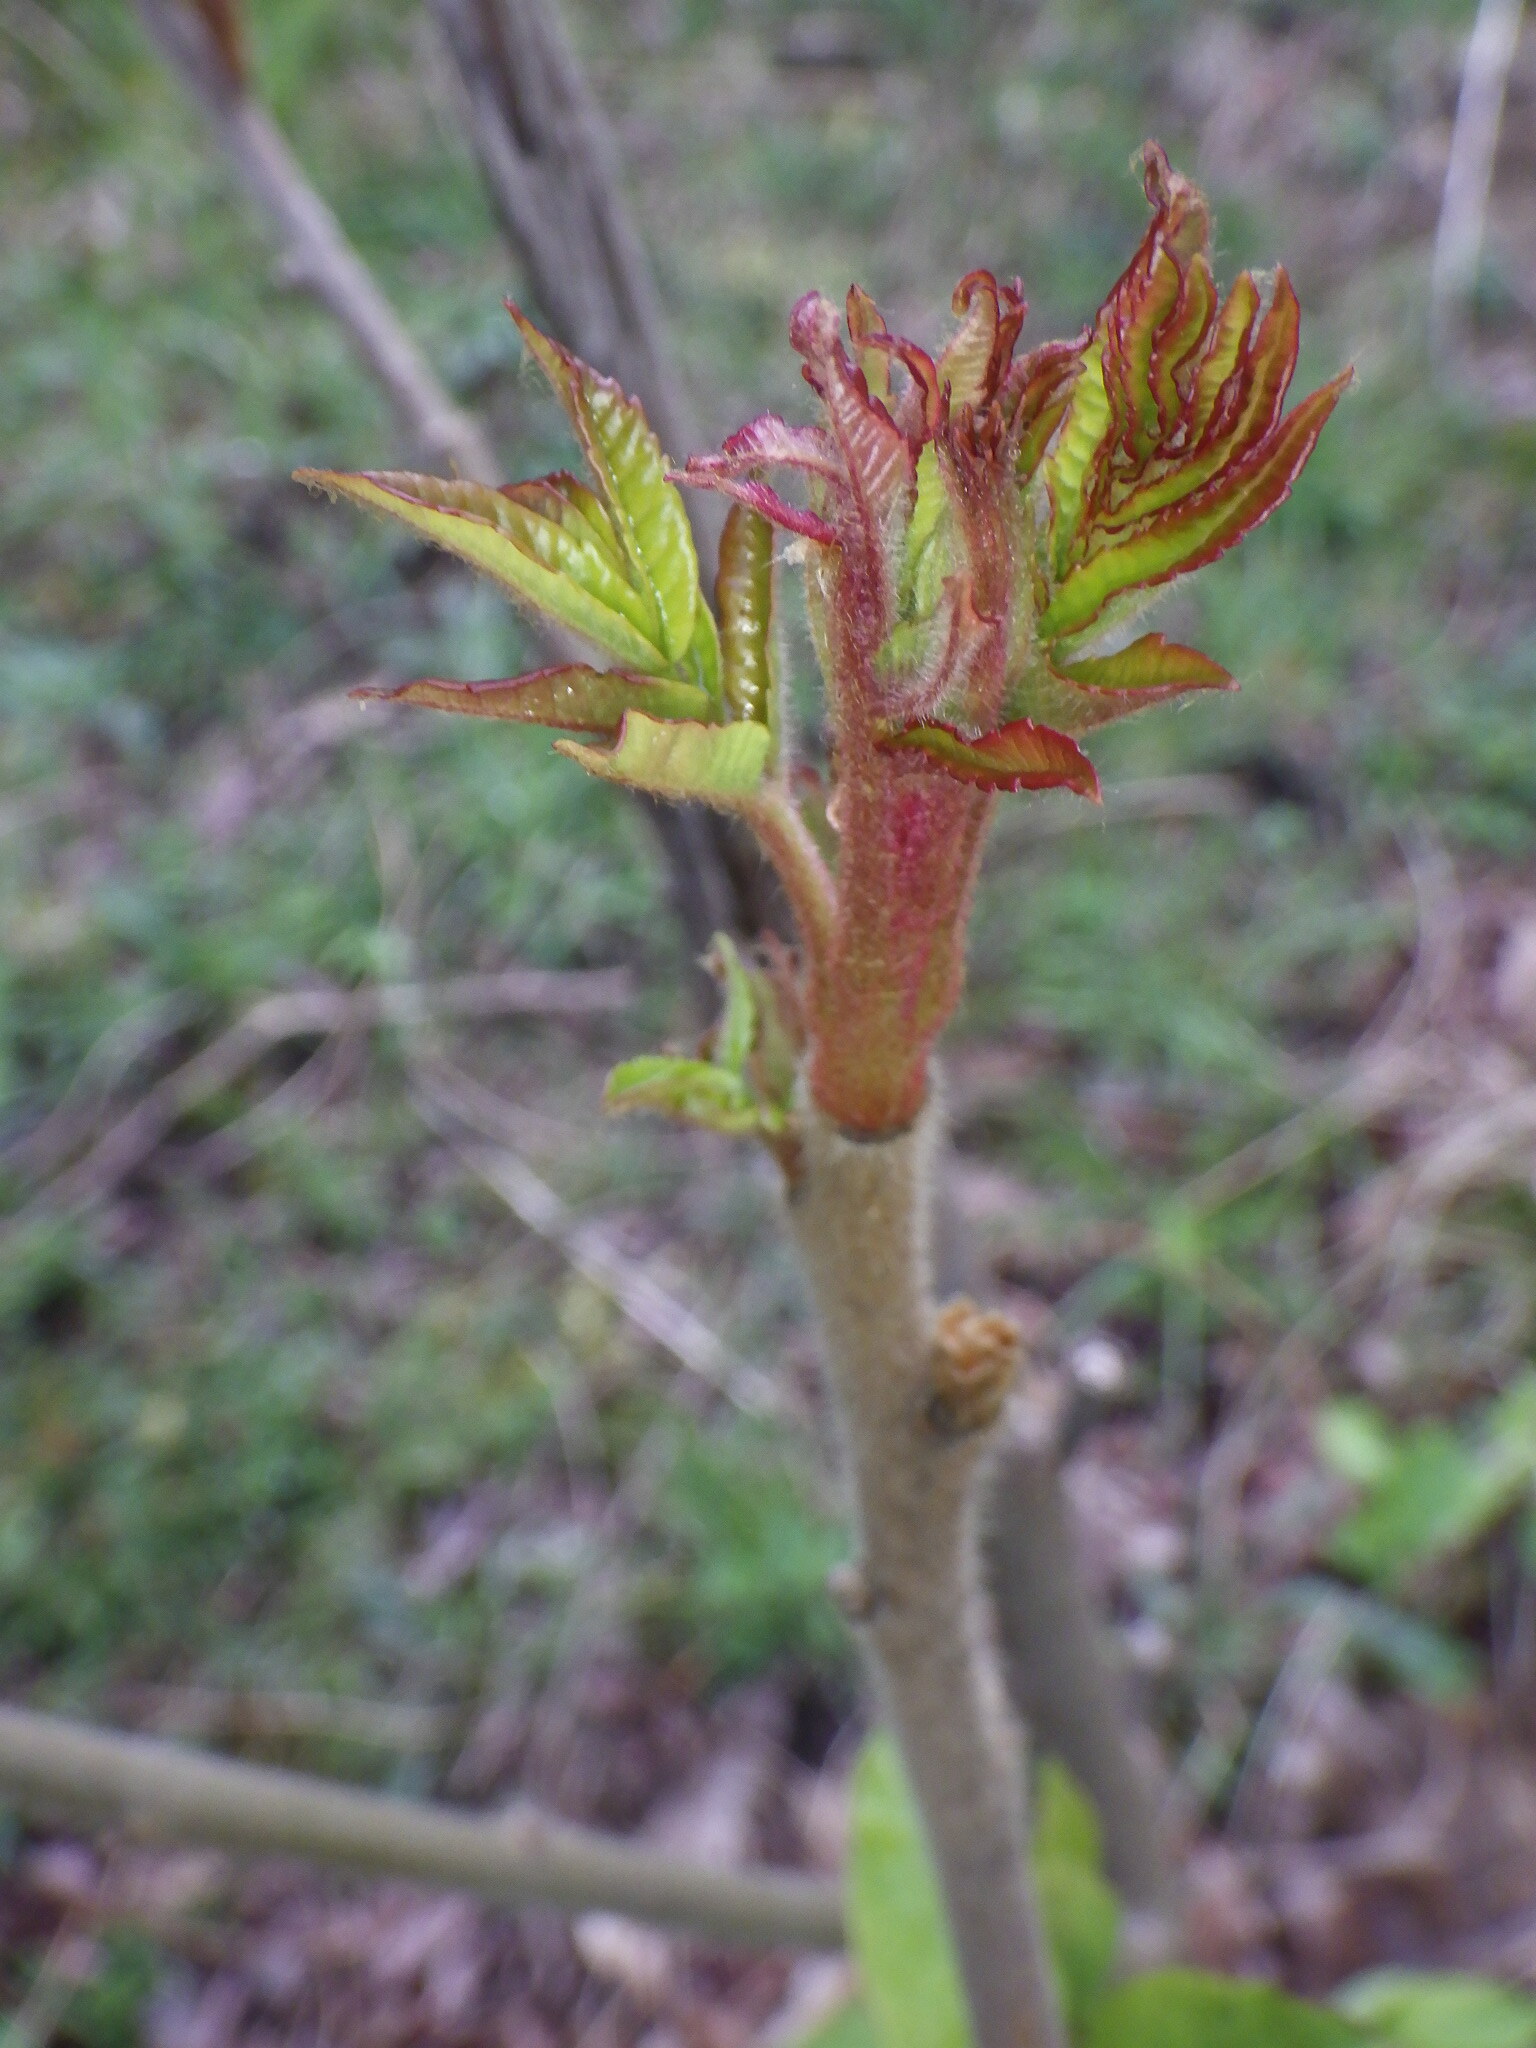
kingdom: Plantae
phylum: Tracheophyta
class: Magnoliopsida
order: Sapindales
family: Anacardiaceae
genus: Rhus
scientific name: Rhus typhina
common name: Staghorn sumac
